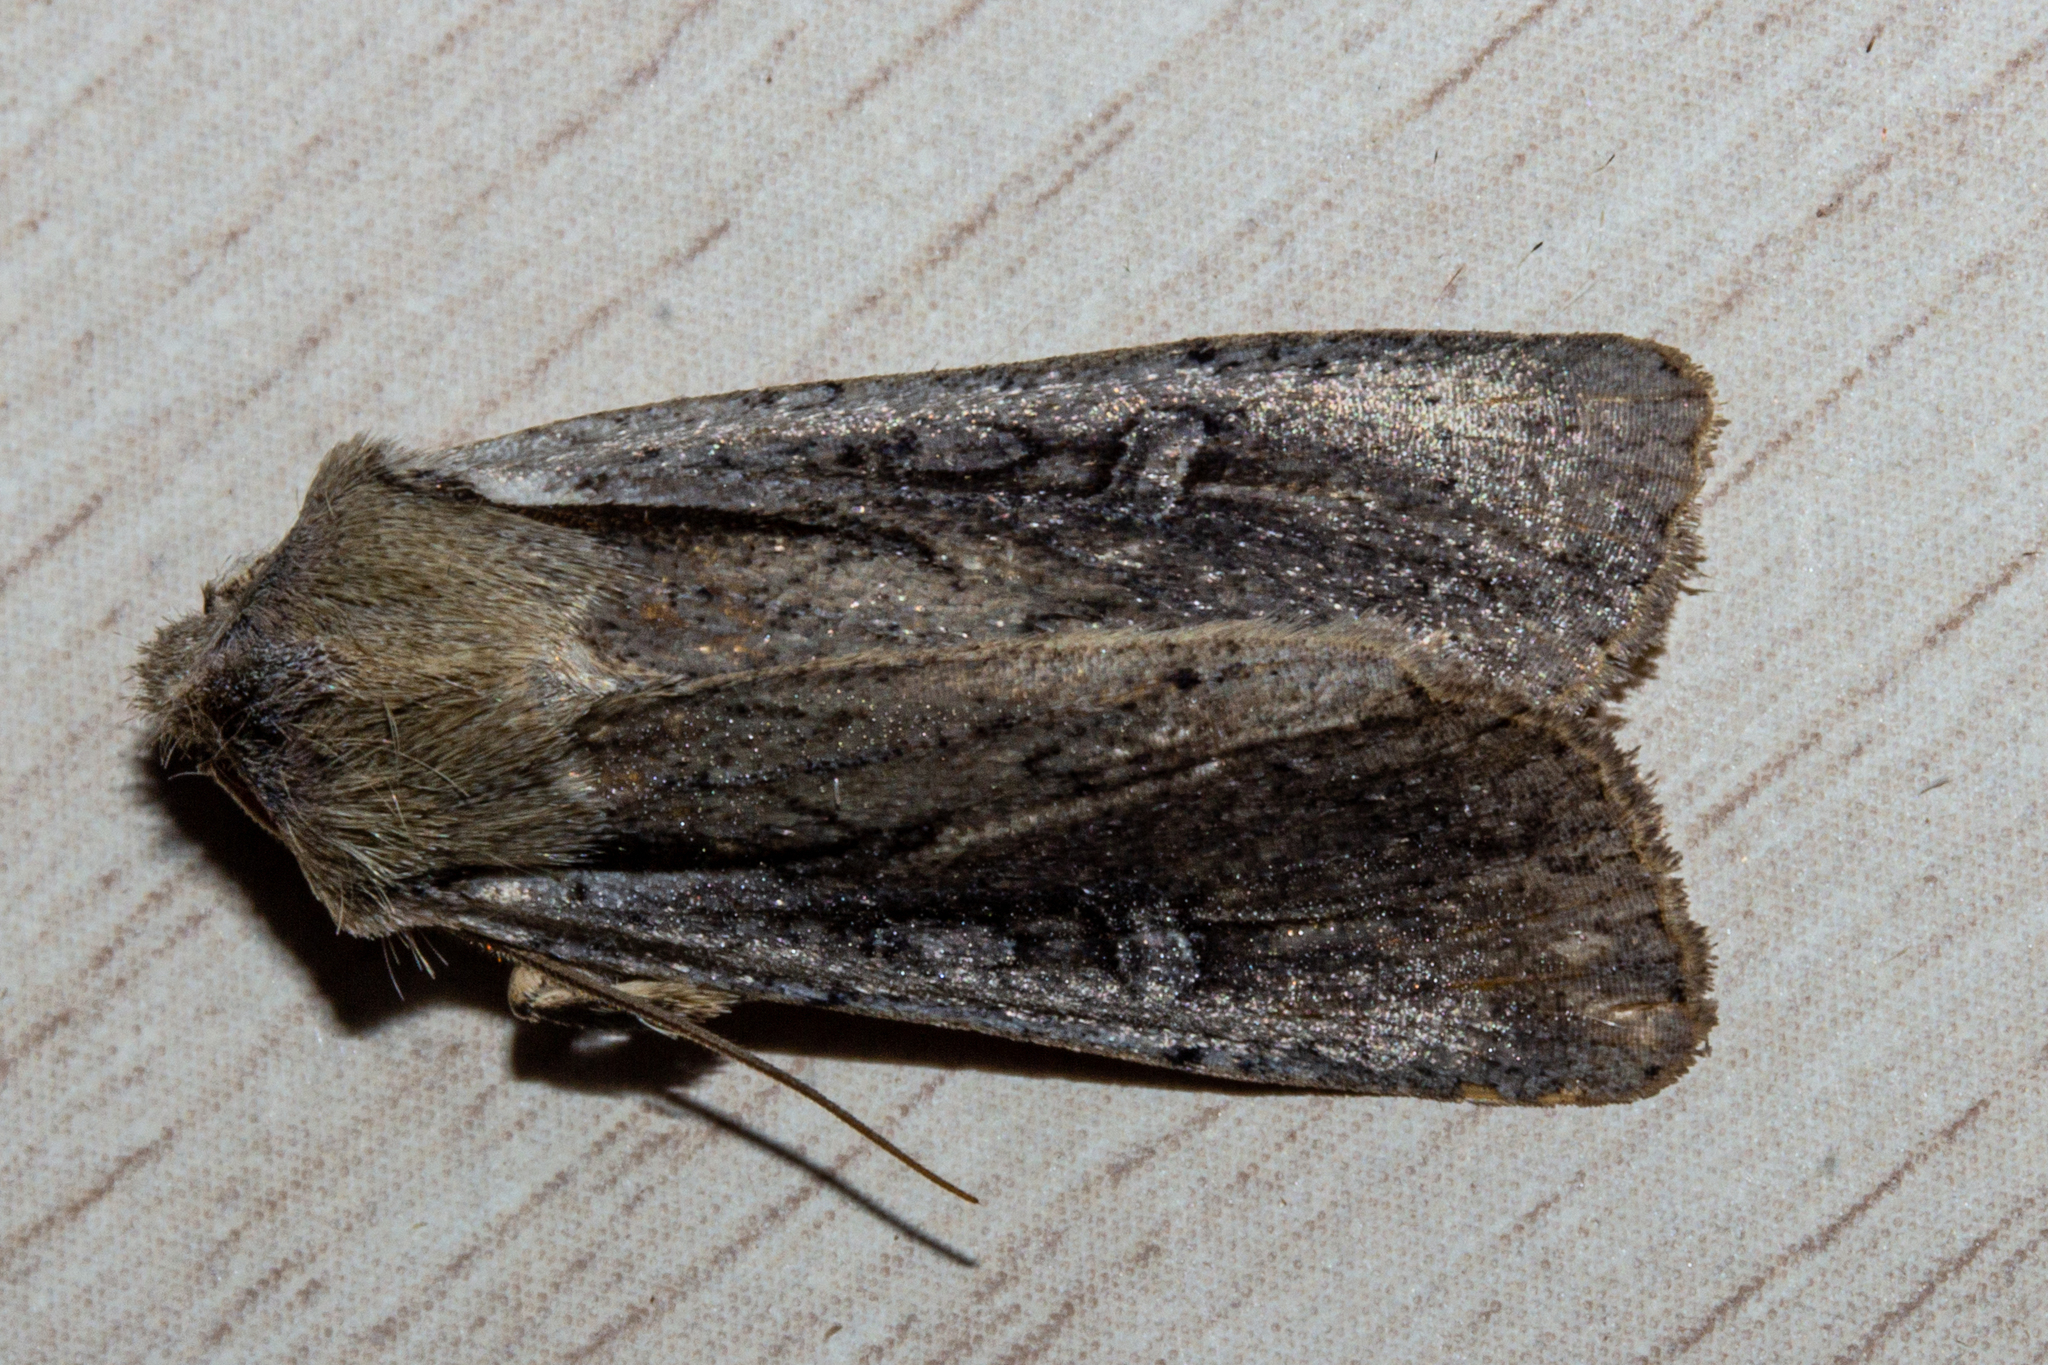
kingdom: Animalia
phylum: Arthropoda
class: Insecta
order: Lepidoptera
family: Noctuidae
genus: Ichneutica
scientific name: Ichneutica atristriga
